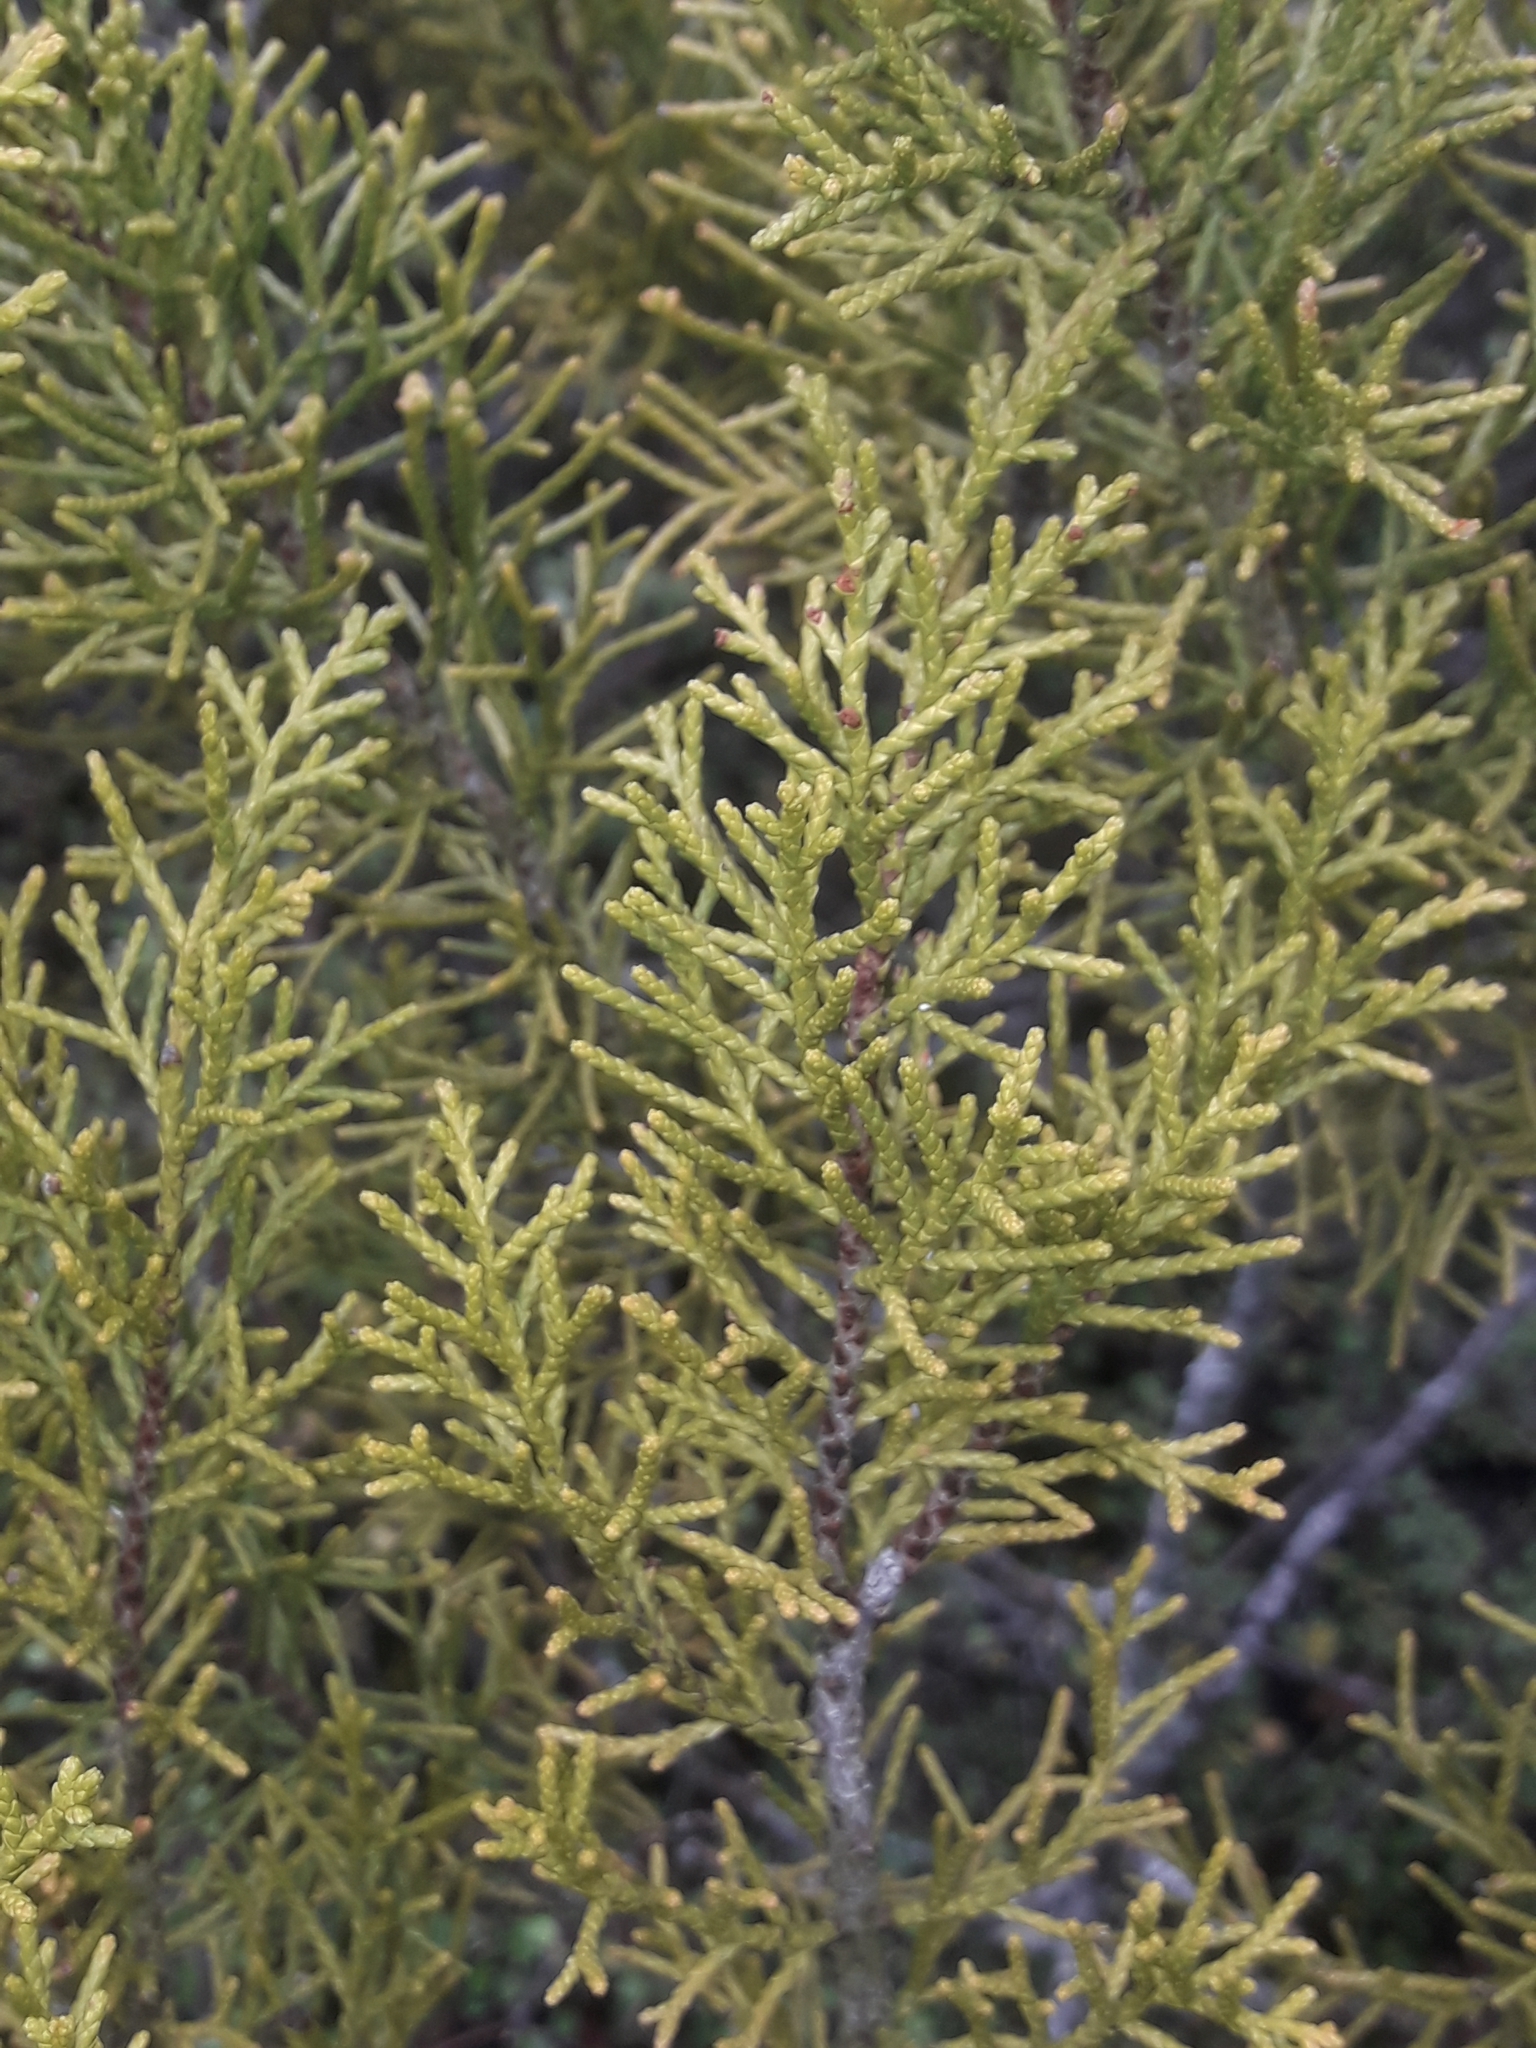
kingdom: Plantae
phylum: Tracheophyta
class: Pinopsida
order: Pinales
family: Podocarpaceae
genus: Halocarpus
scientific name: Halocarpus bidwillii
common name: Bog pine
